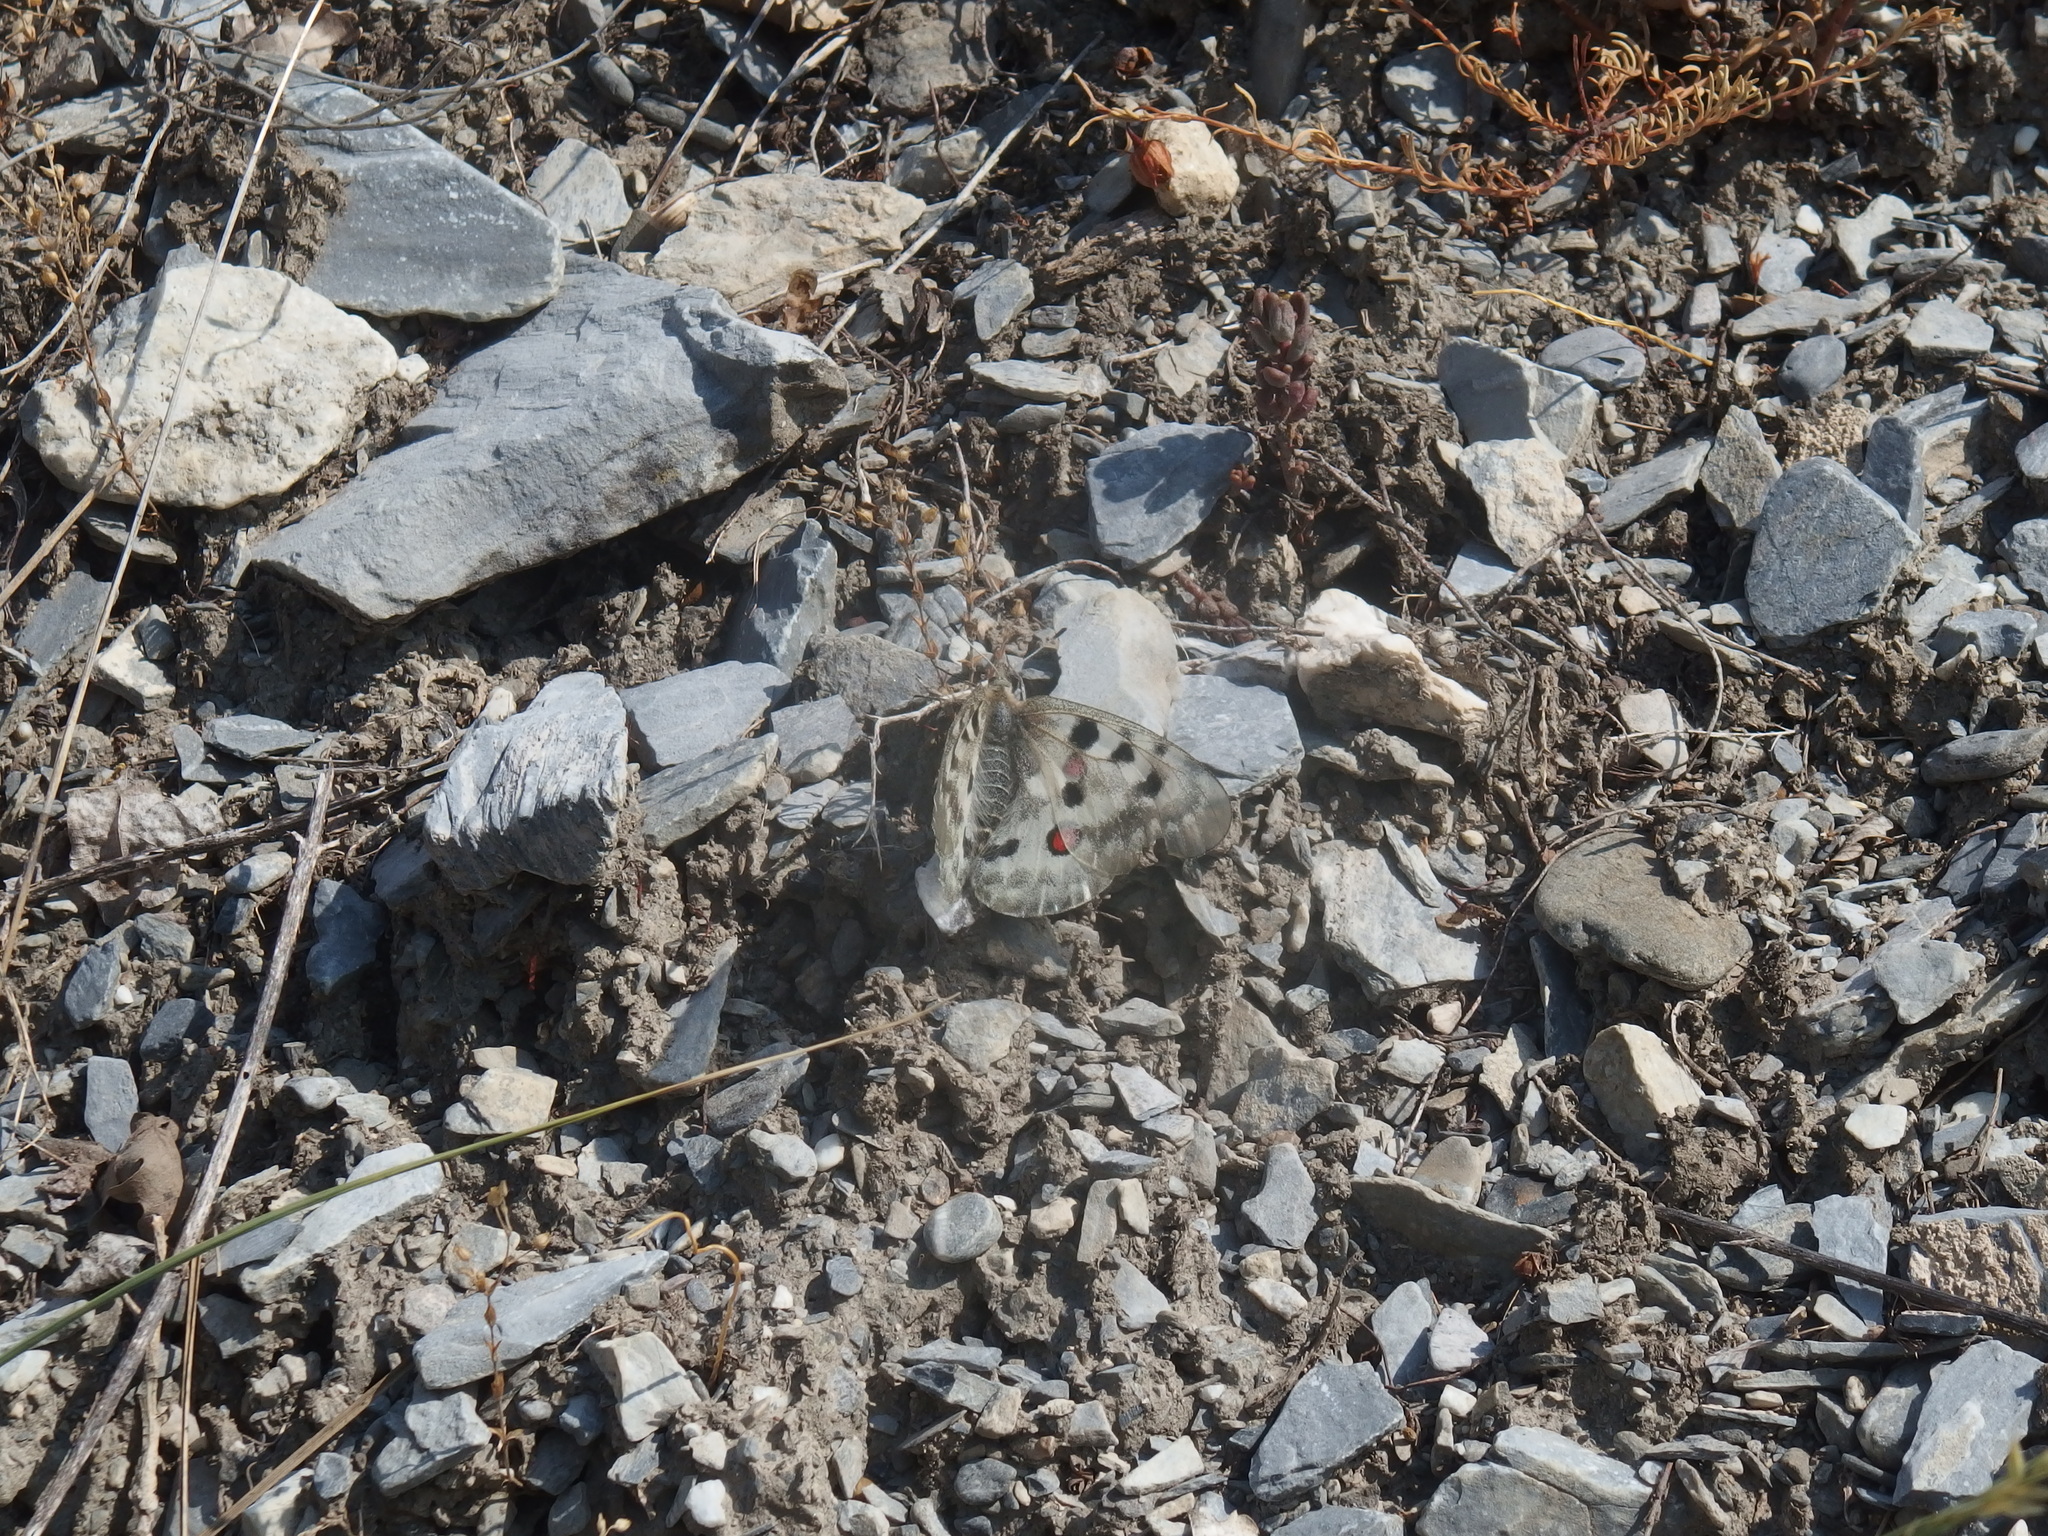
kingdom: Animalia
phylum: Arthropoda
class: Insecta
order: Lepidoptera
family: Papilionidae
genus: Parnassius
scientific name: Parnassius apollo
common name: Apollo
